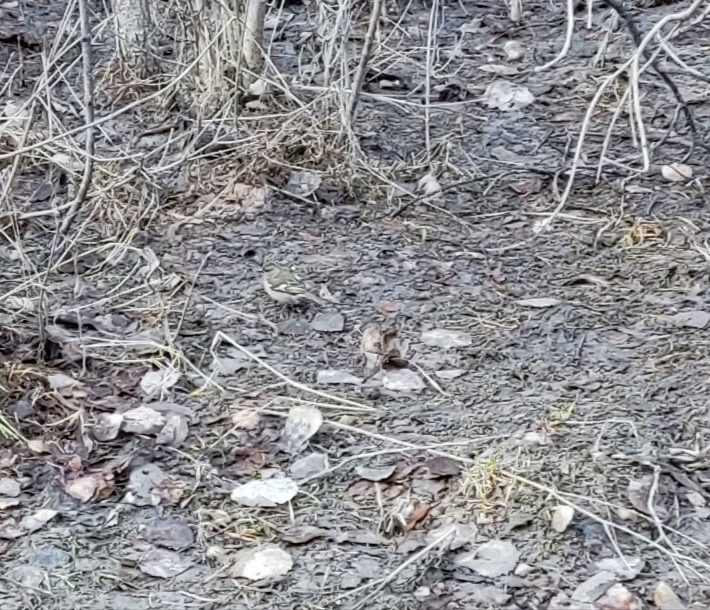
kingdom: Animalia
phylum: Chordata
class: Aves
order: Passeriformes
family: Fringillidae
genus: Fringilla
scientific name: Fringilla coelebs
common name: Common chaffinch
